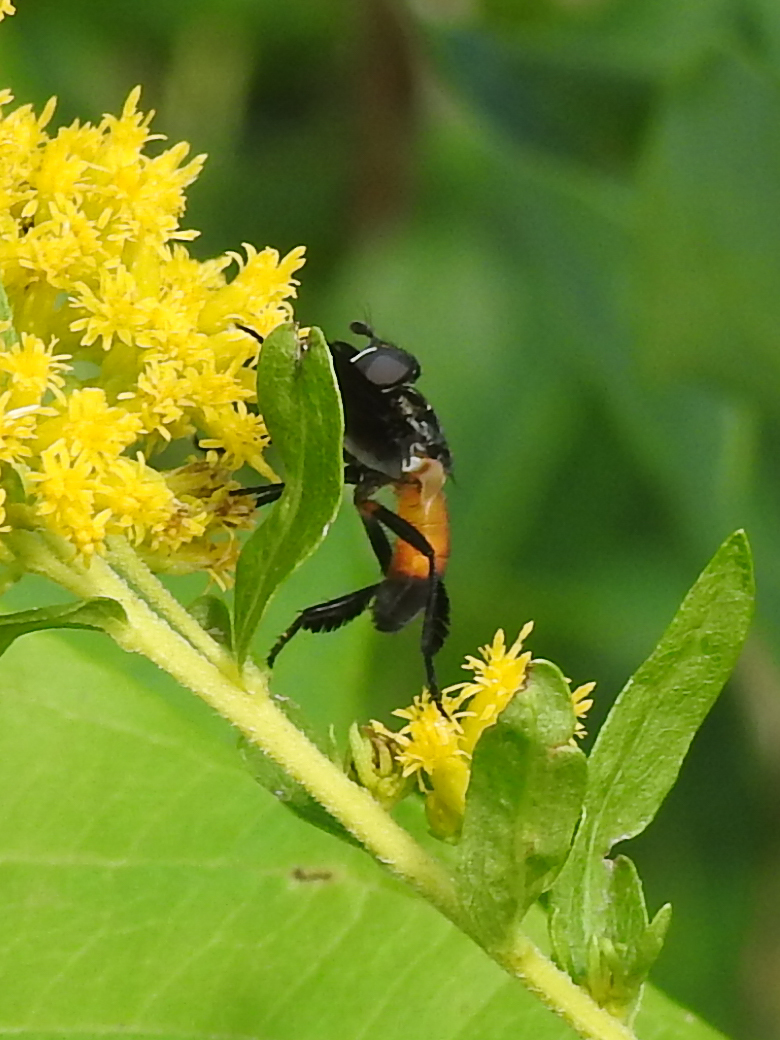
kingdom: Animalia
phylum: Arthropoda
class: Insecta
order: Diptera
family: Tachinidae
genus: Trichopoda
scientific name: Trichopoda pennipes
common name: Tachinid fly
